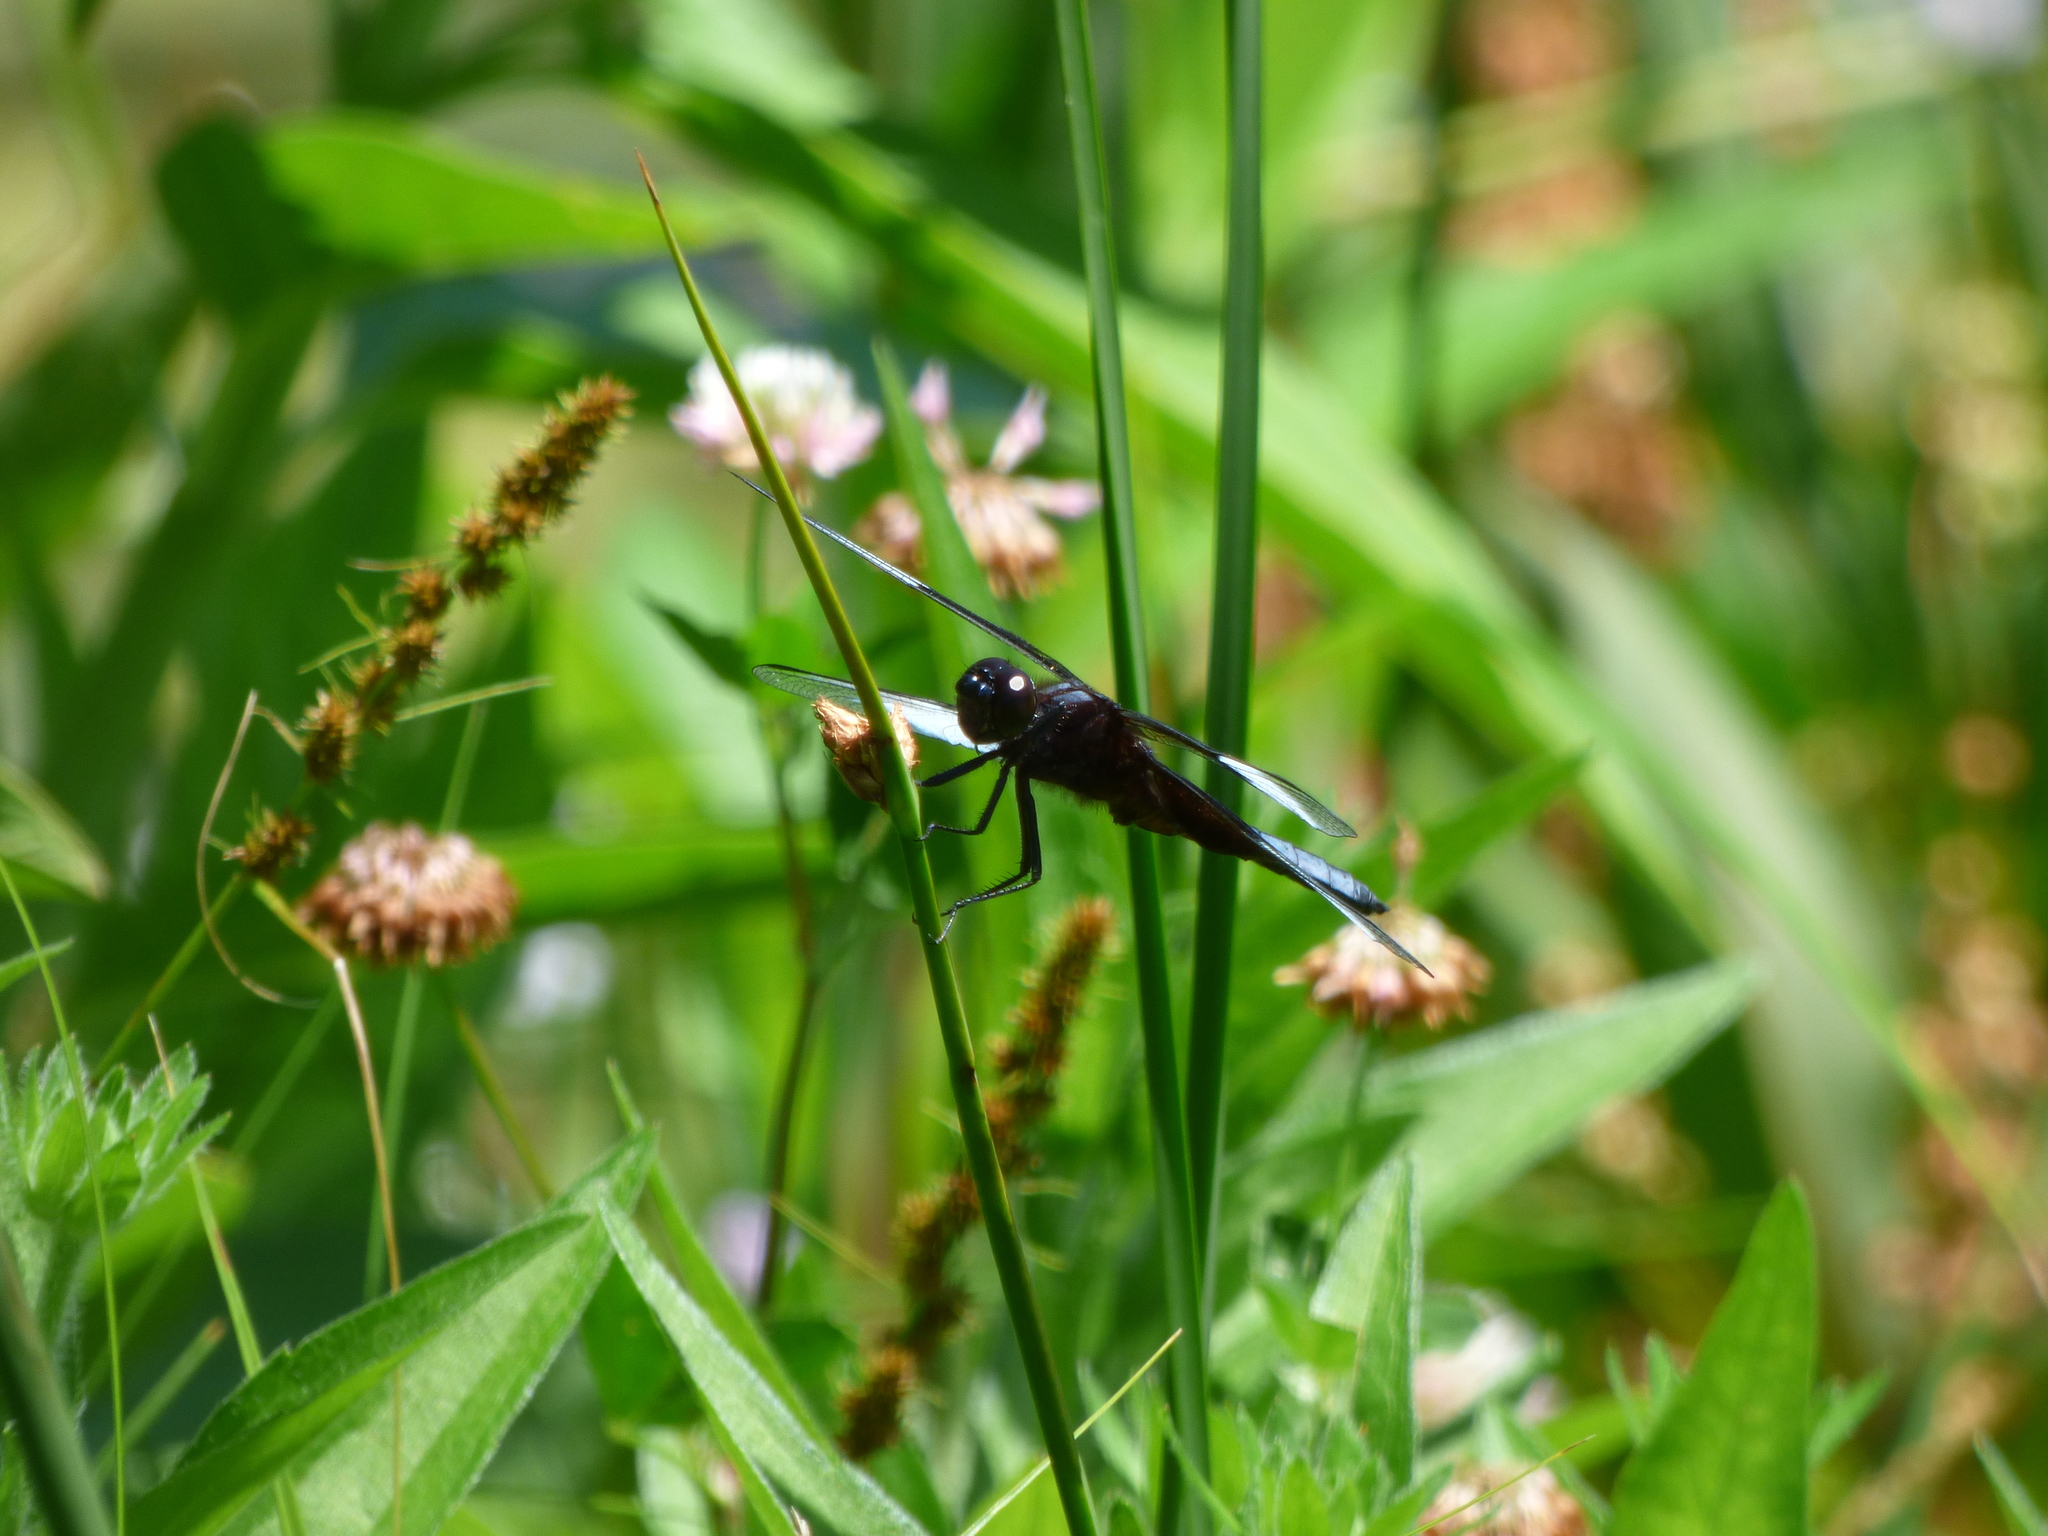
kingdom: Animalia
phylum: Arthropoda
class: Insecta
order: Odonata
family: Libellulidae
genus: Libellula
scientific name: Libellula luctuosa
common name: Widow skimmer
